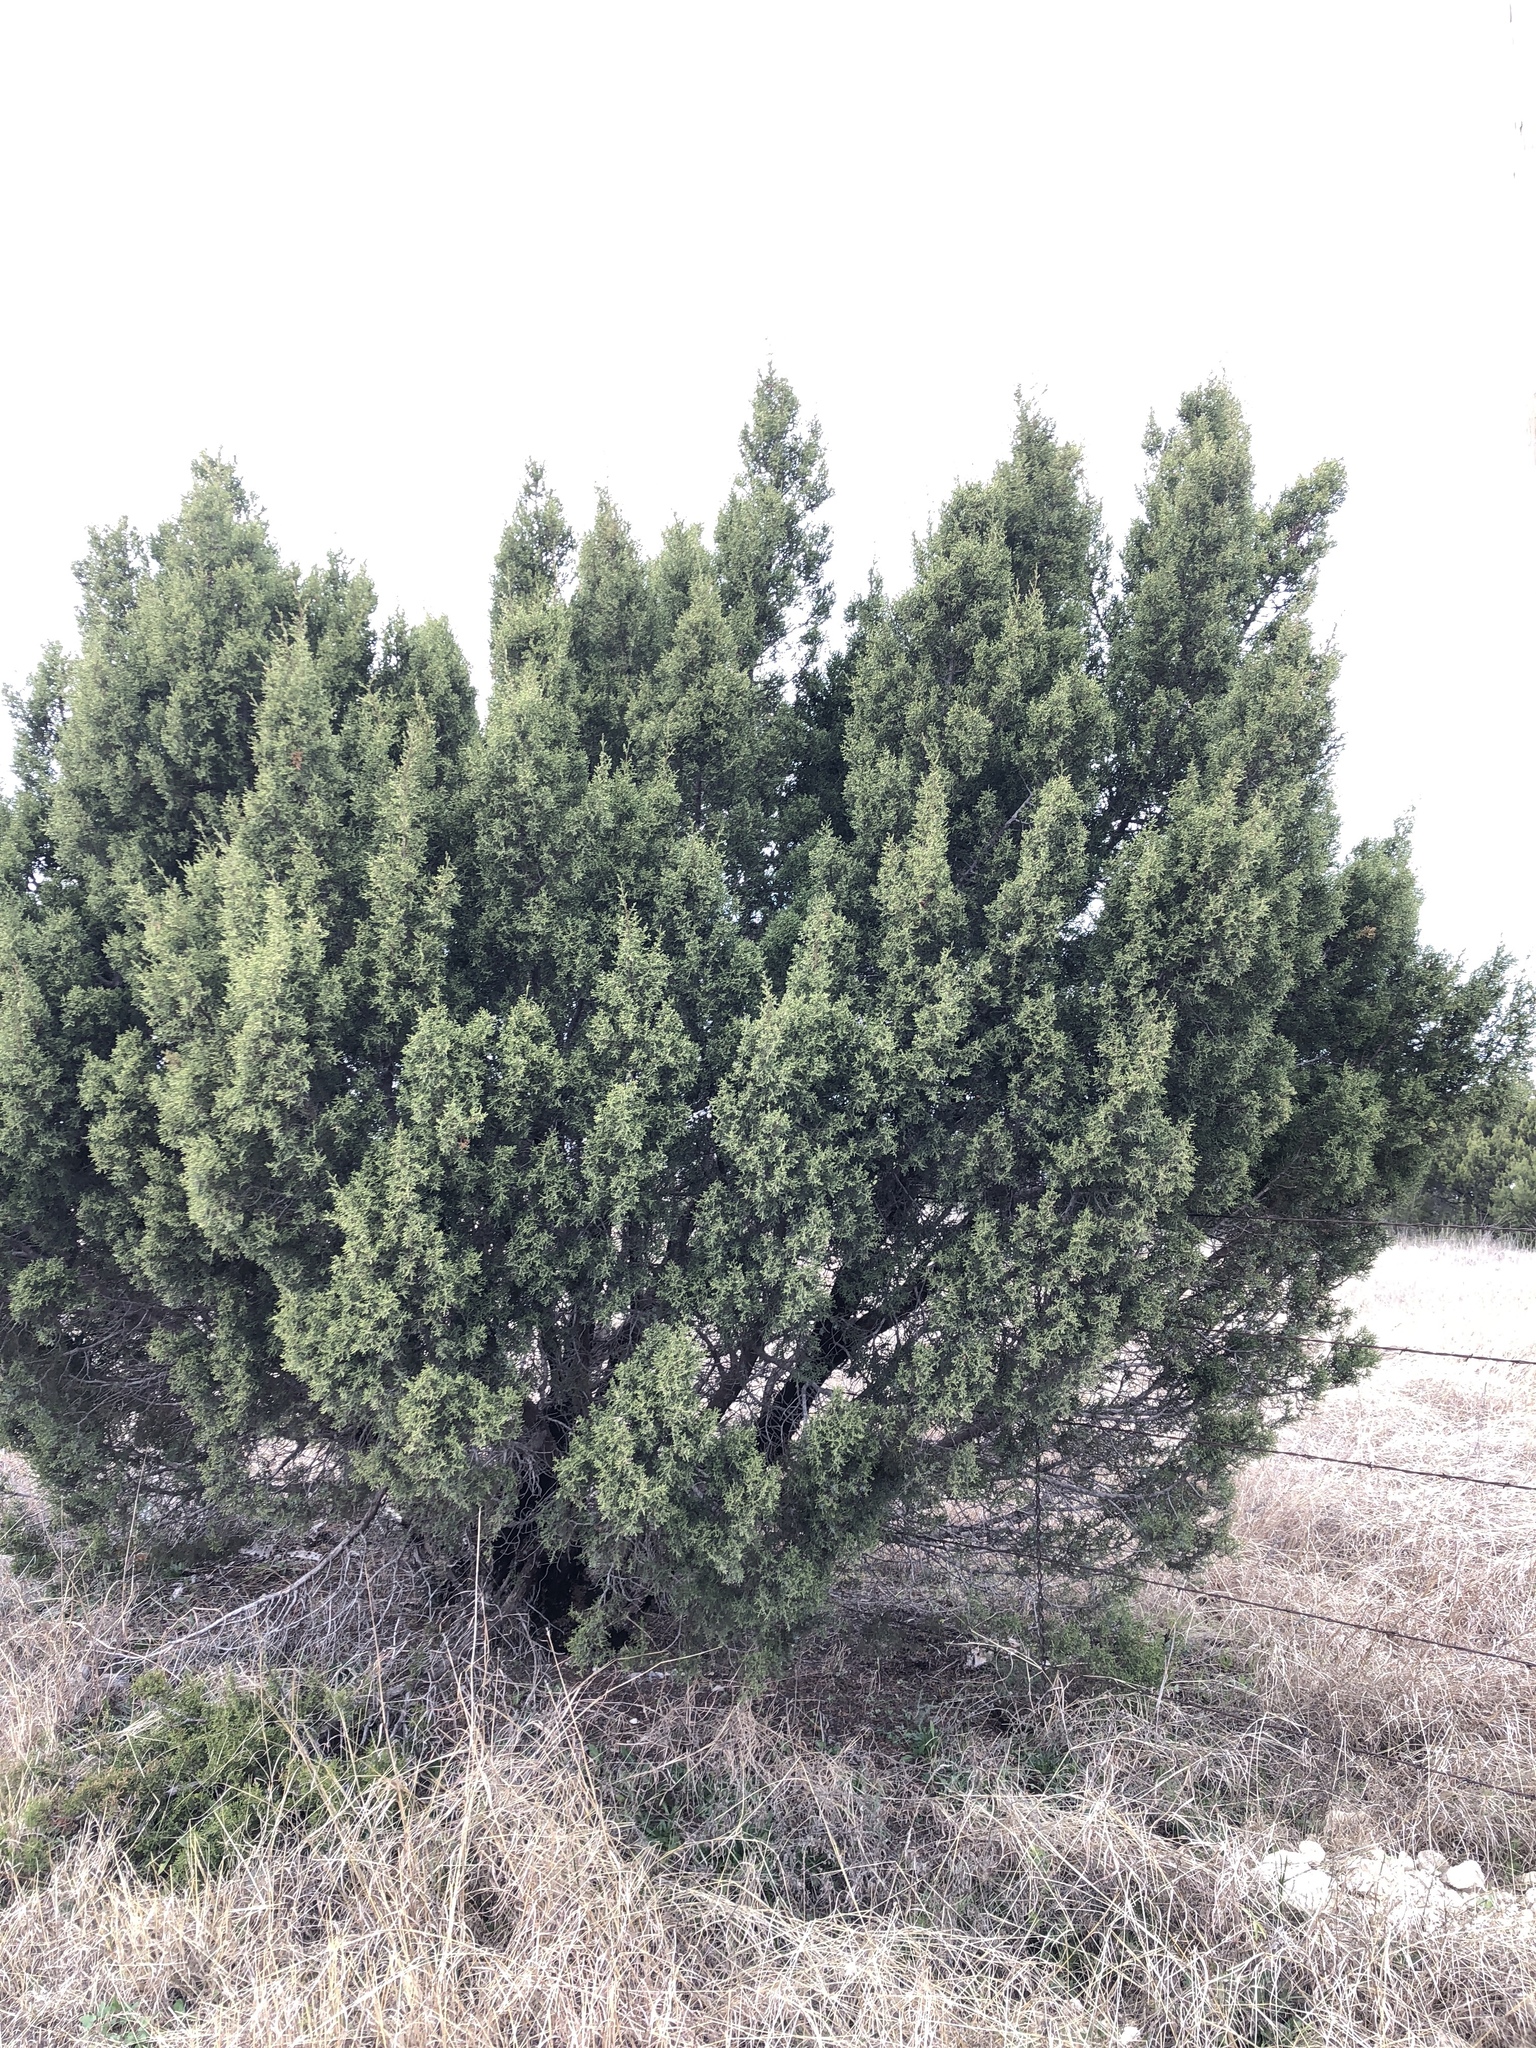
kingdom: Plantae
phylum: Tracheophyta
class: Pinopsida
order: Pinales
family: Cupressaceae
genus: Juniperus
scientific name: Juniperus pinchotii
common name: Pinchot juniper
